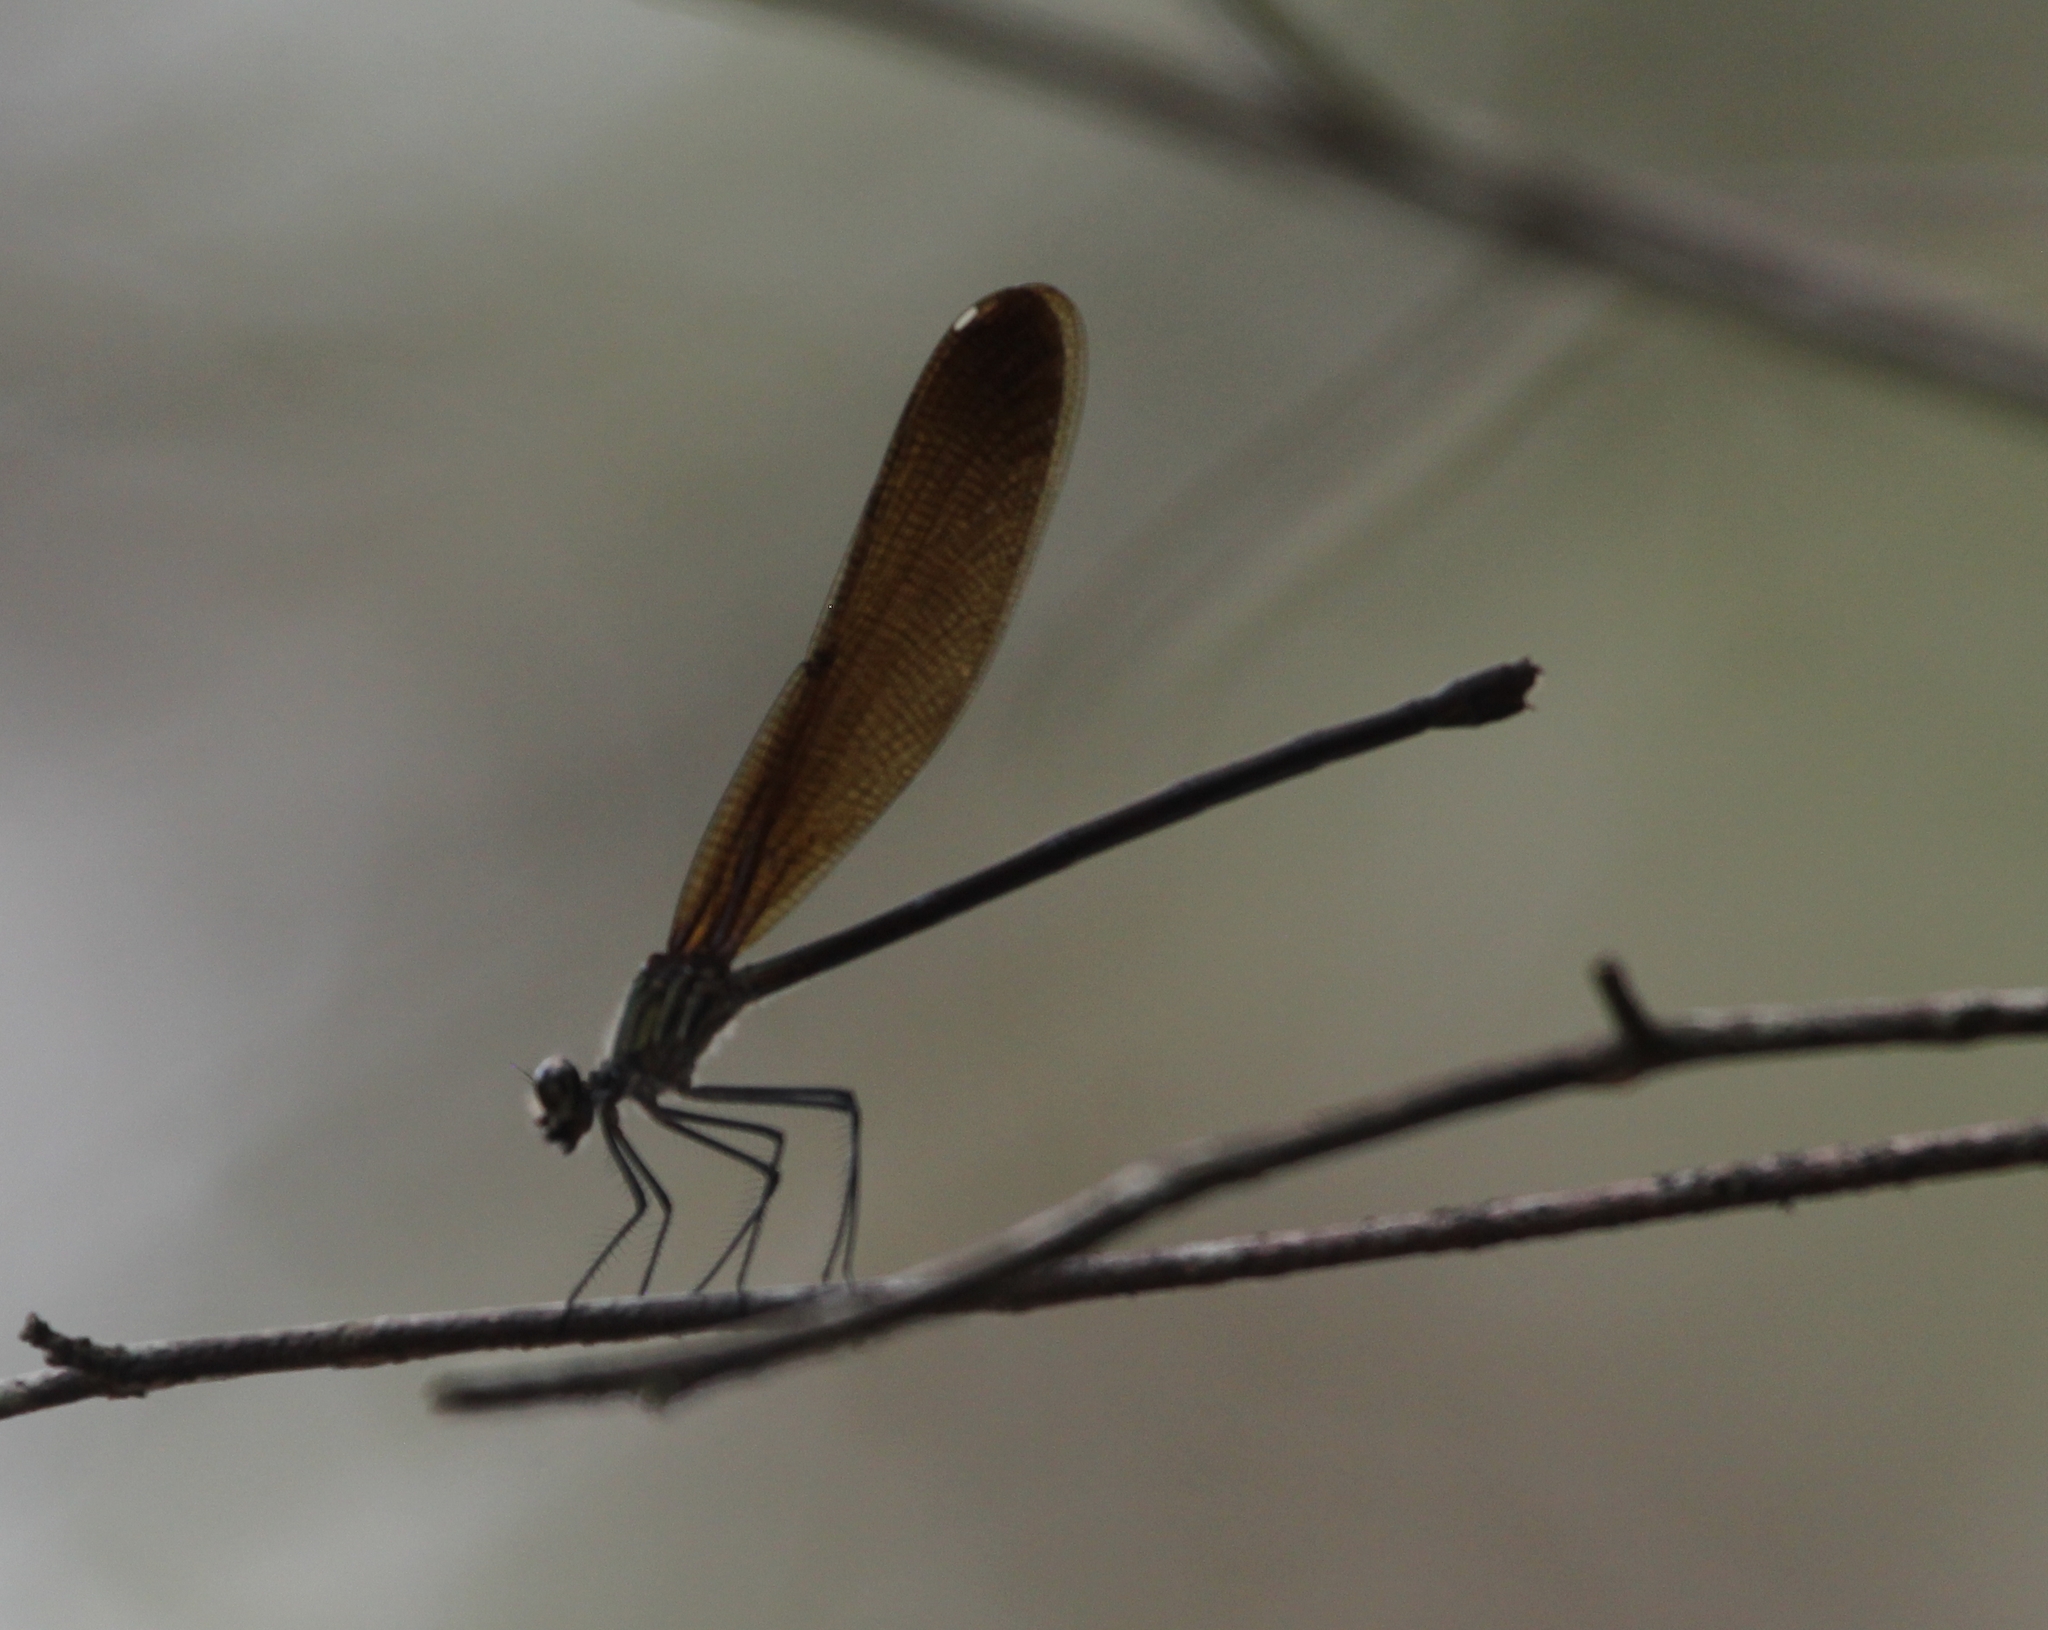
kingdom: Animalia
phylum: Arthropoda
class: Insecta
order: Odonata
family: Calopterygidae
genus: Hetaerina
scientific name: Hetaerina titia
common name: Smoky rubyspot
